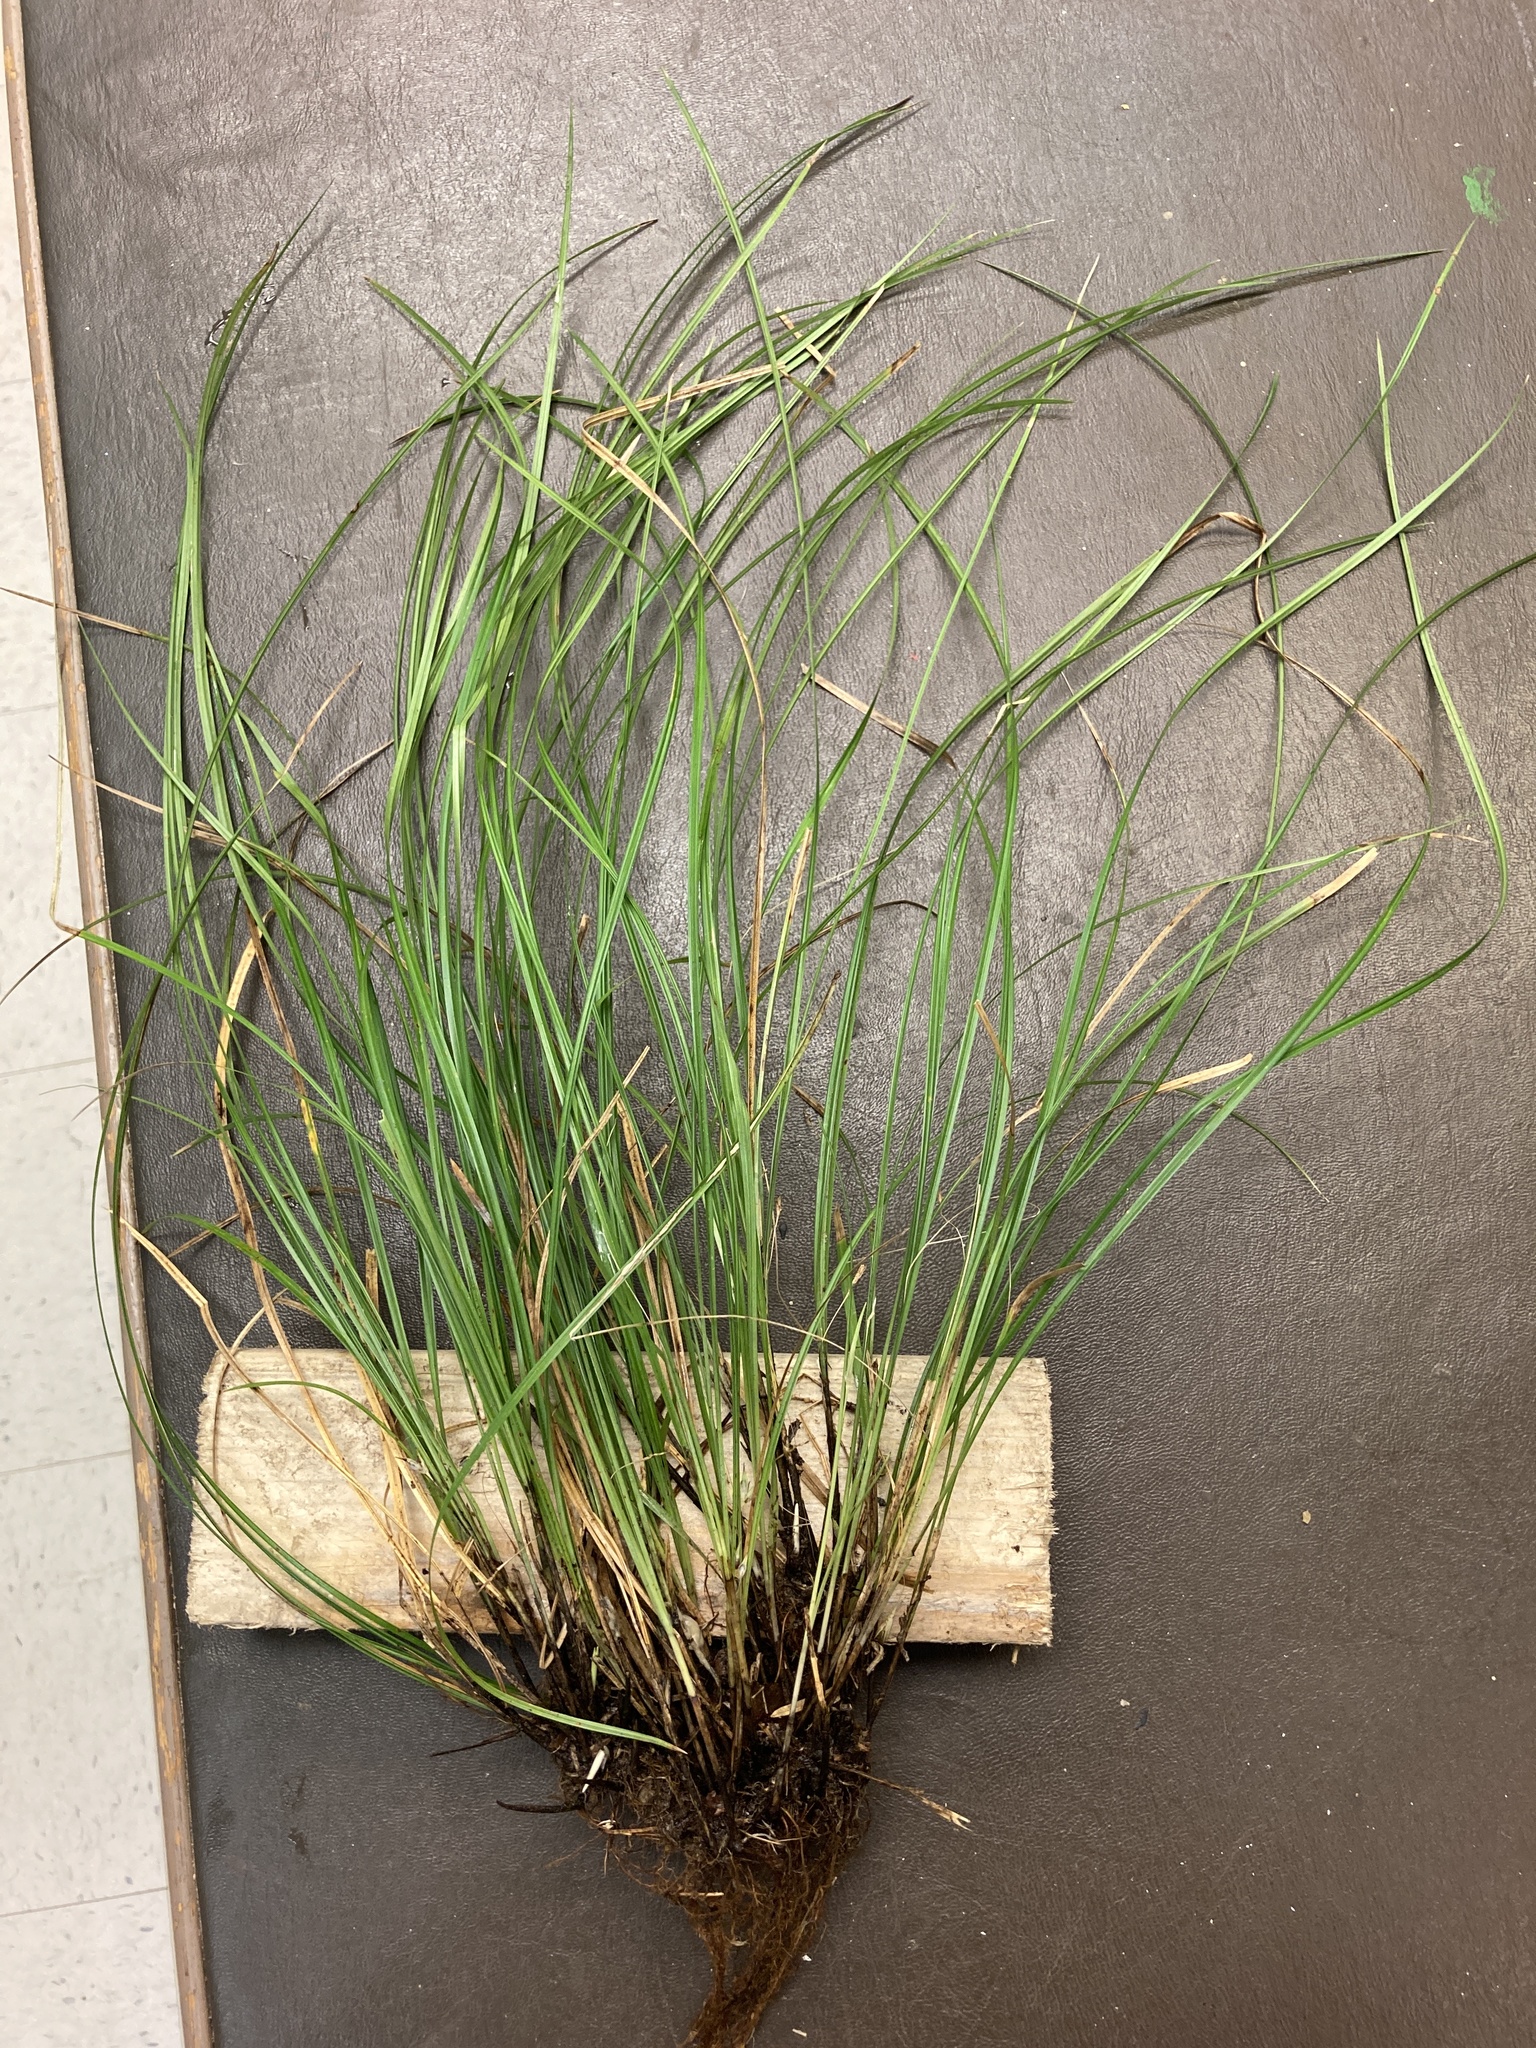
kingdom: Plantae
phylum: Tracheophyta
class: Liliopsida
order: Poales
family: Cyperaceae
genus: Carex
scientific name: Carex basiantha
